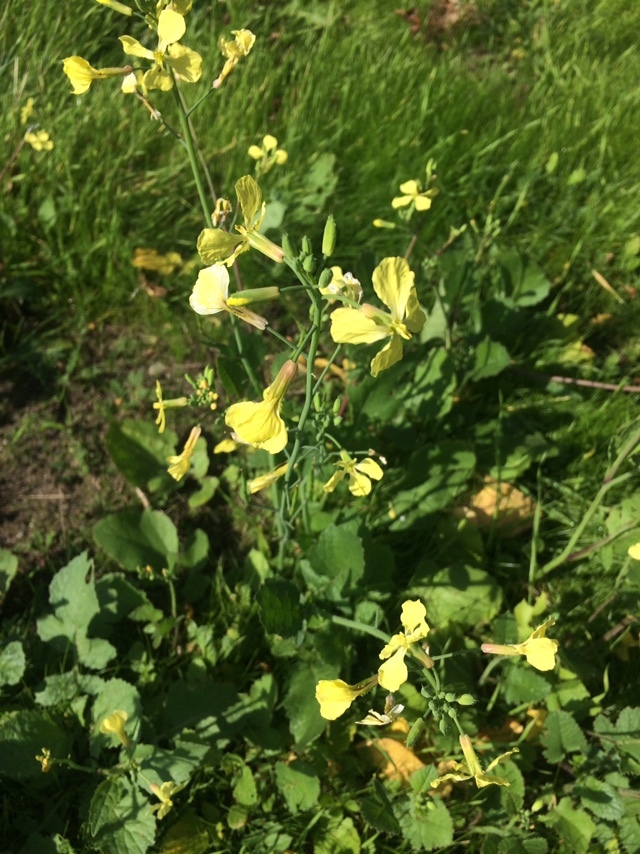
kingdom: Plantae
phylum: Tracheophyta
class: Magnoliopsida
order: Brassicales
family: Brassicaceae
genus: Raphanus
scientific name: Raphanus raphanistrum
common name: Wild radish
